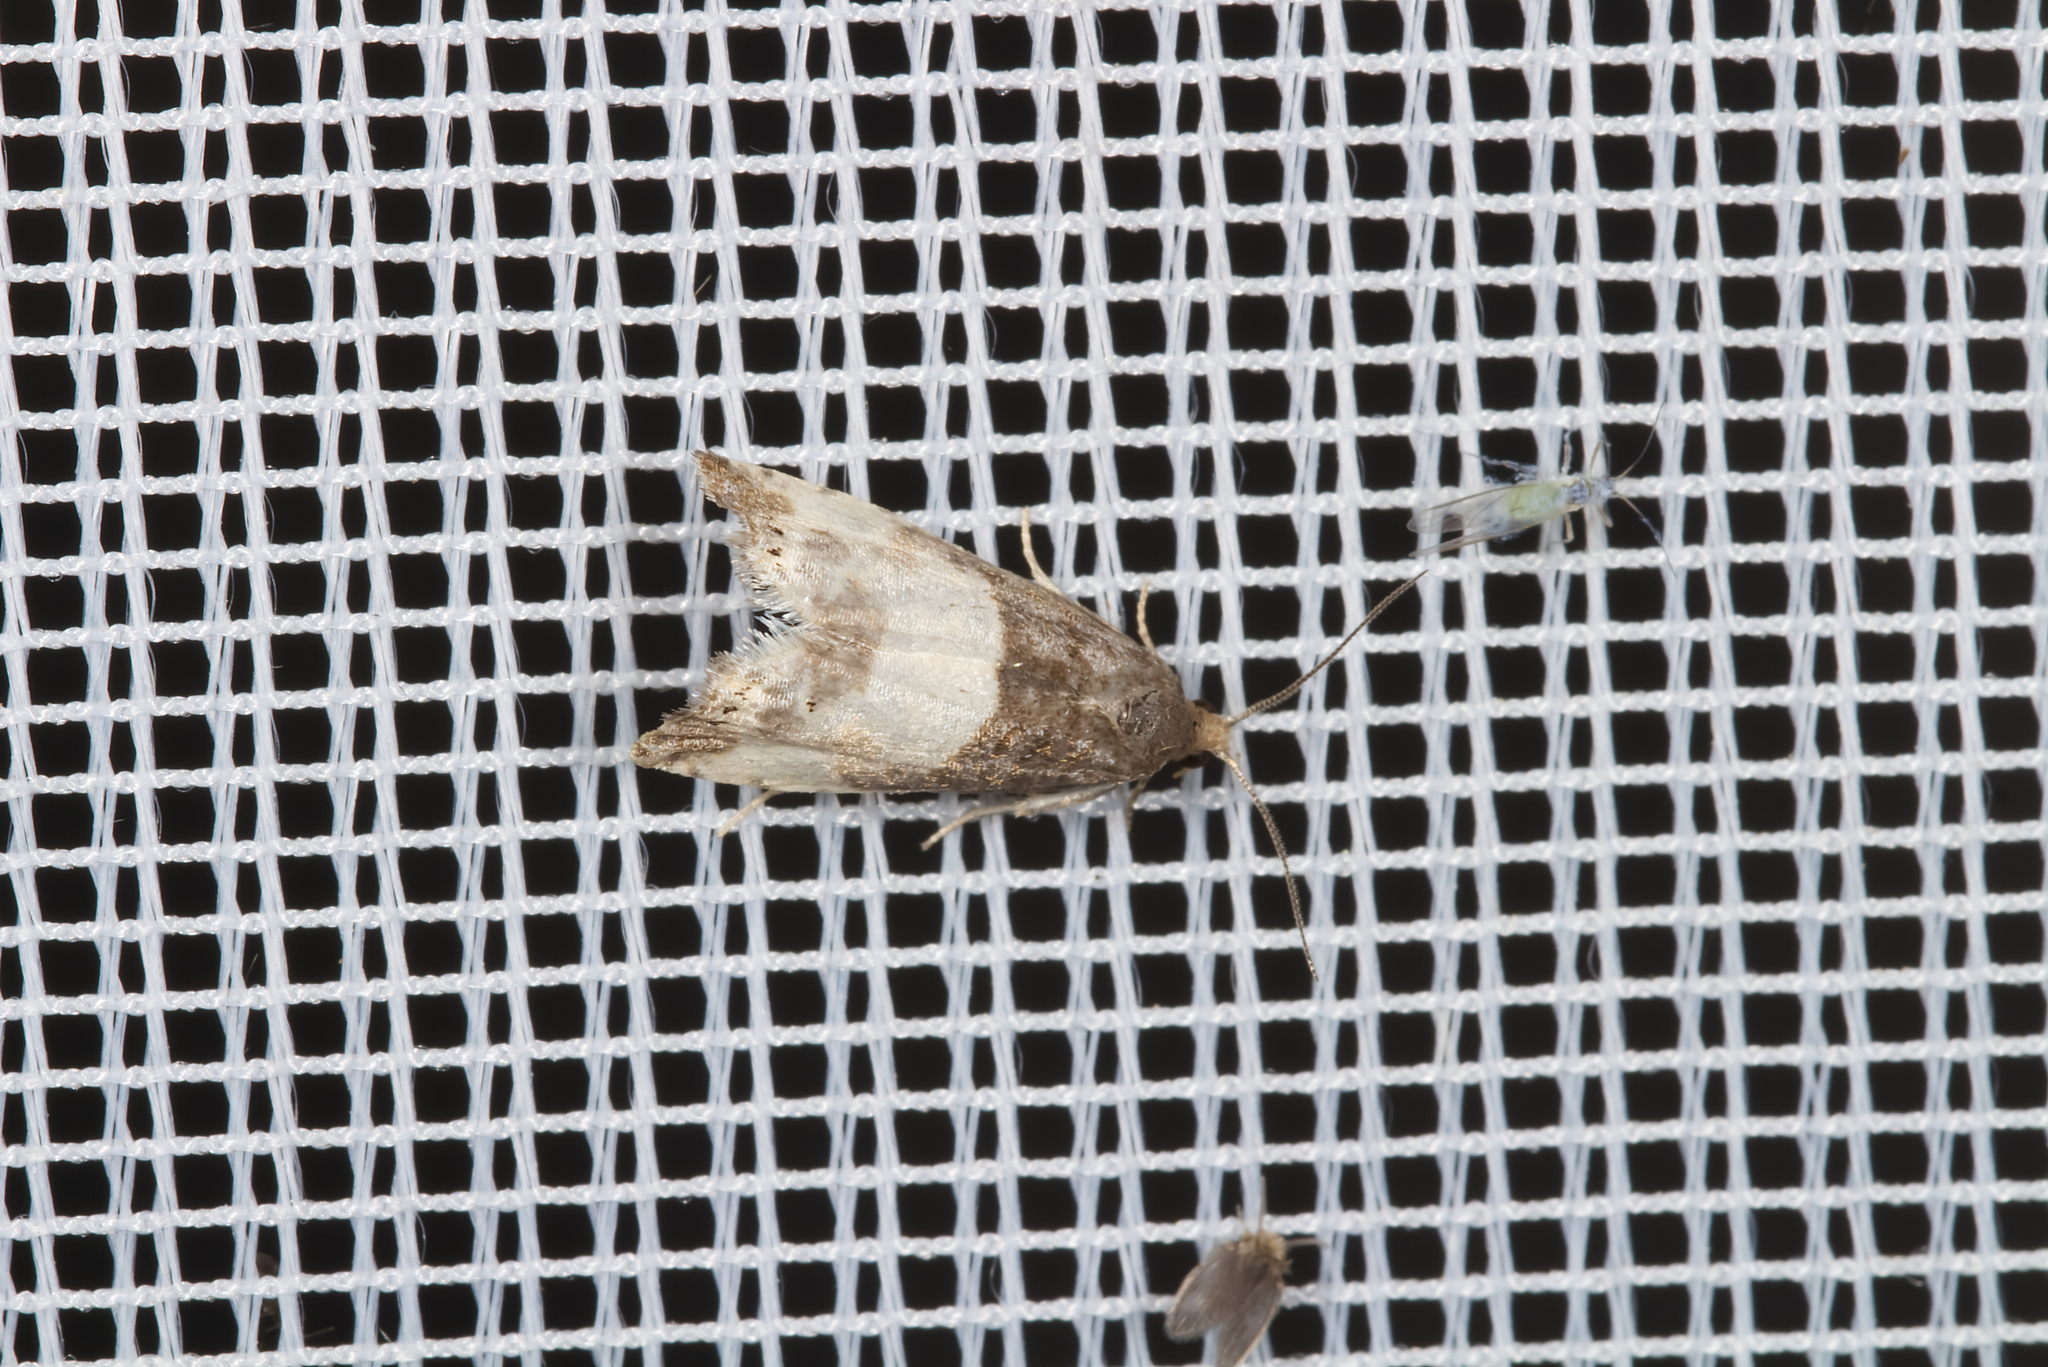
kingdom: Animalia
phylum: Arthropoda
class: Insecta
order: Lepidoptera
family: Tortricidae
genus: Notocelia
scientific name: Notocelia cynosbatella
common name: Yellow-faced bell moth
